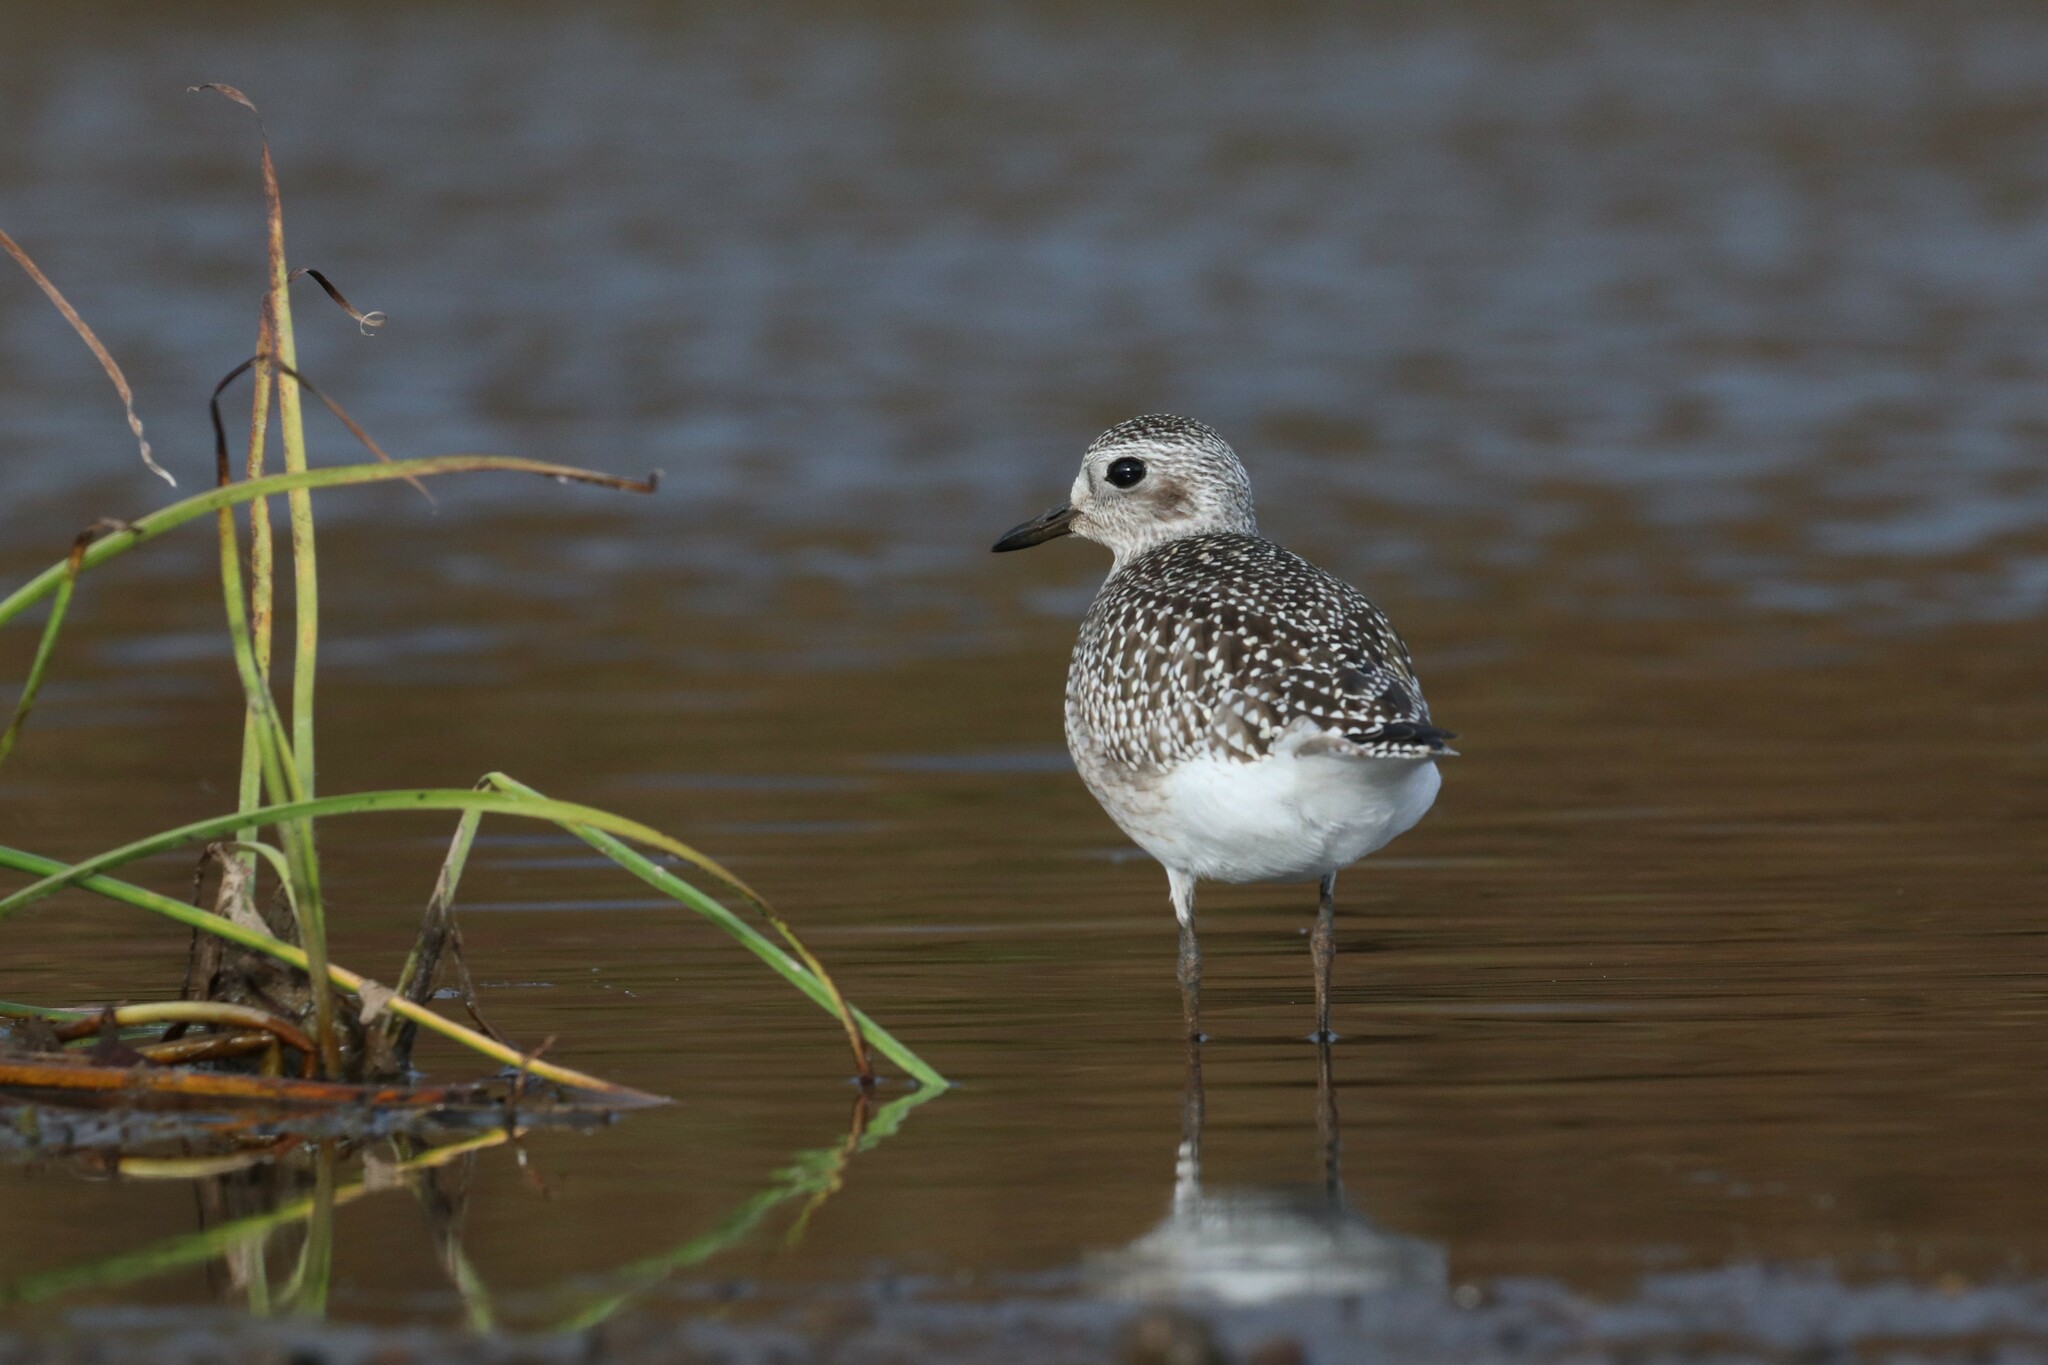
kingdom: Animalia
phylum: Chordata
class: Aves
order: Charadriiformes
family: Charadriidae
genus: Pluvialis
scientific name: Pluvialis squatarola
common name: Grey plover
